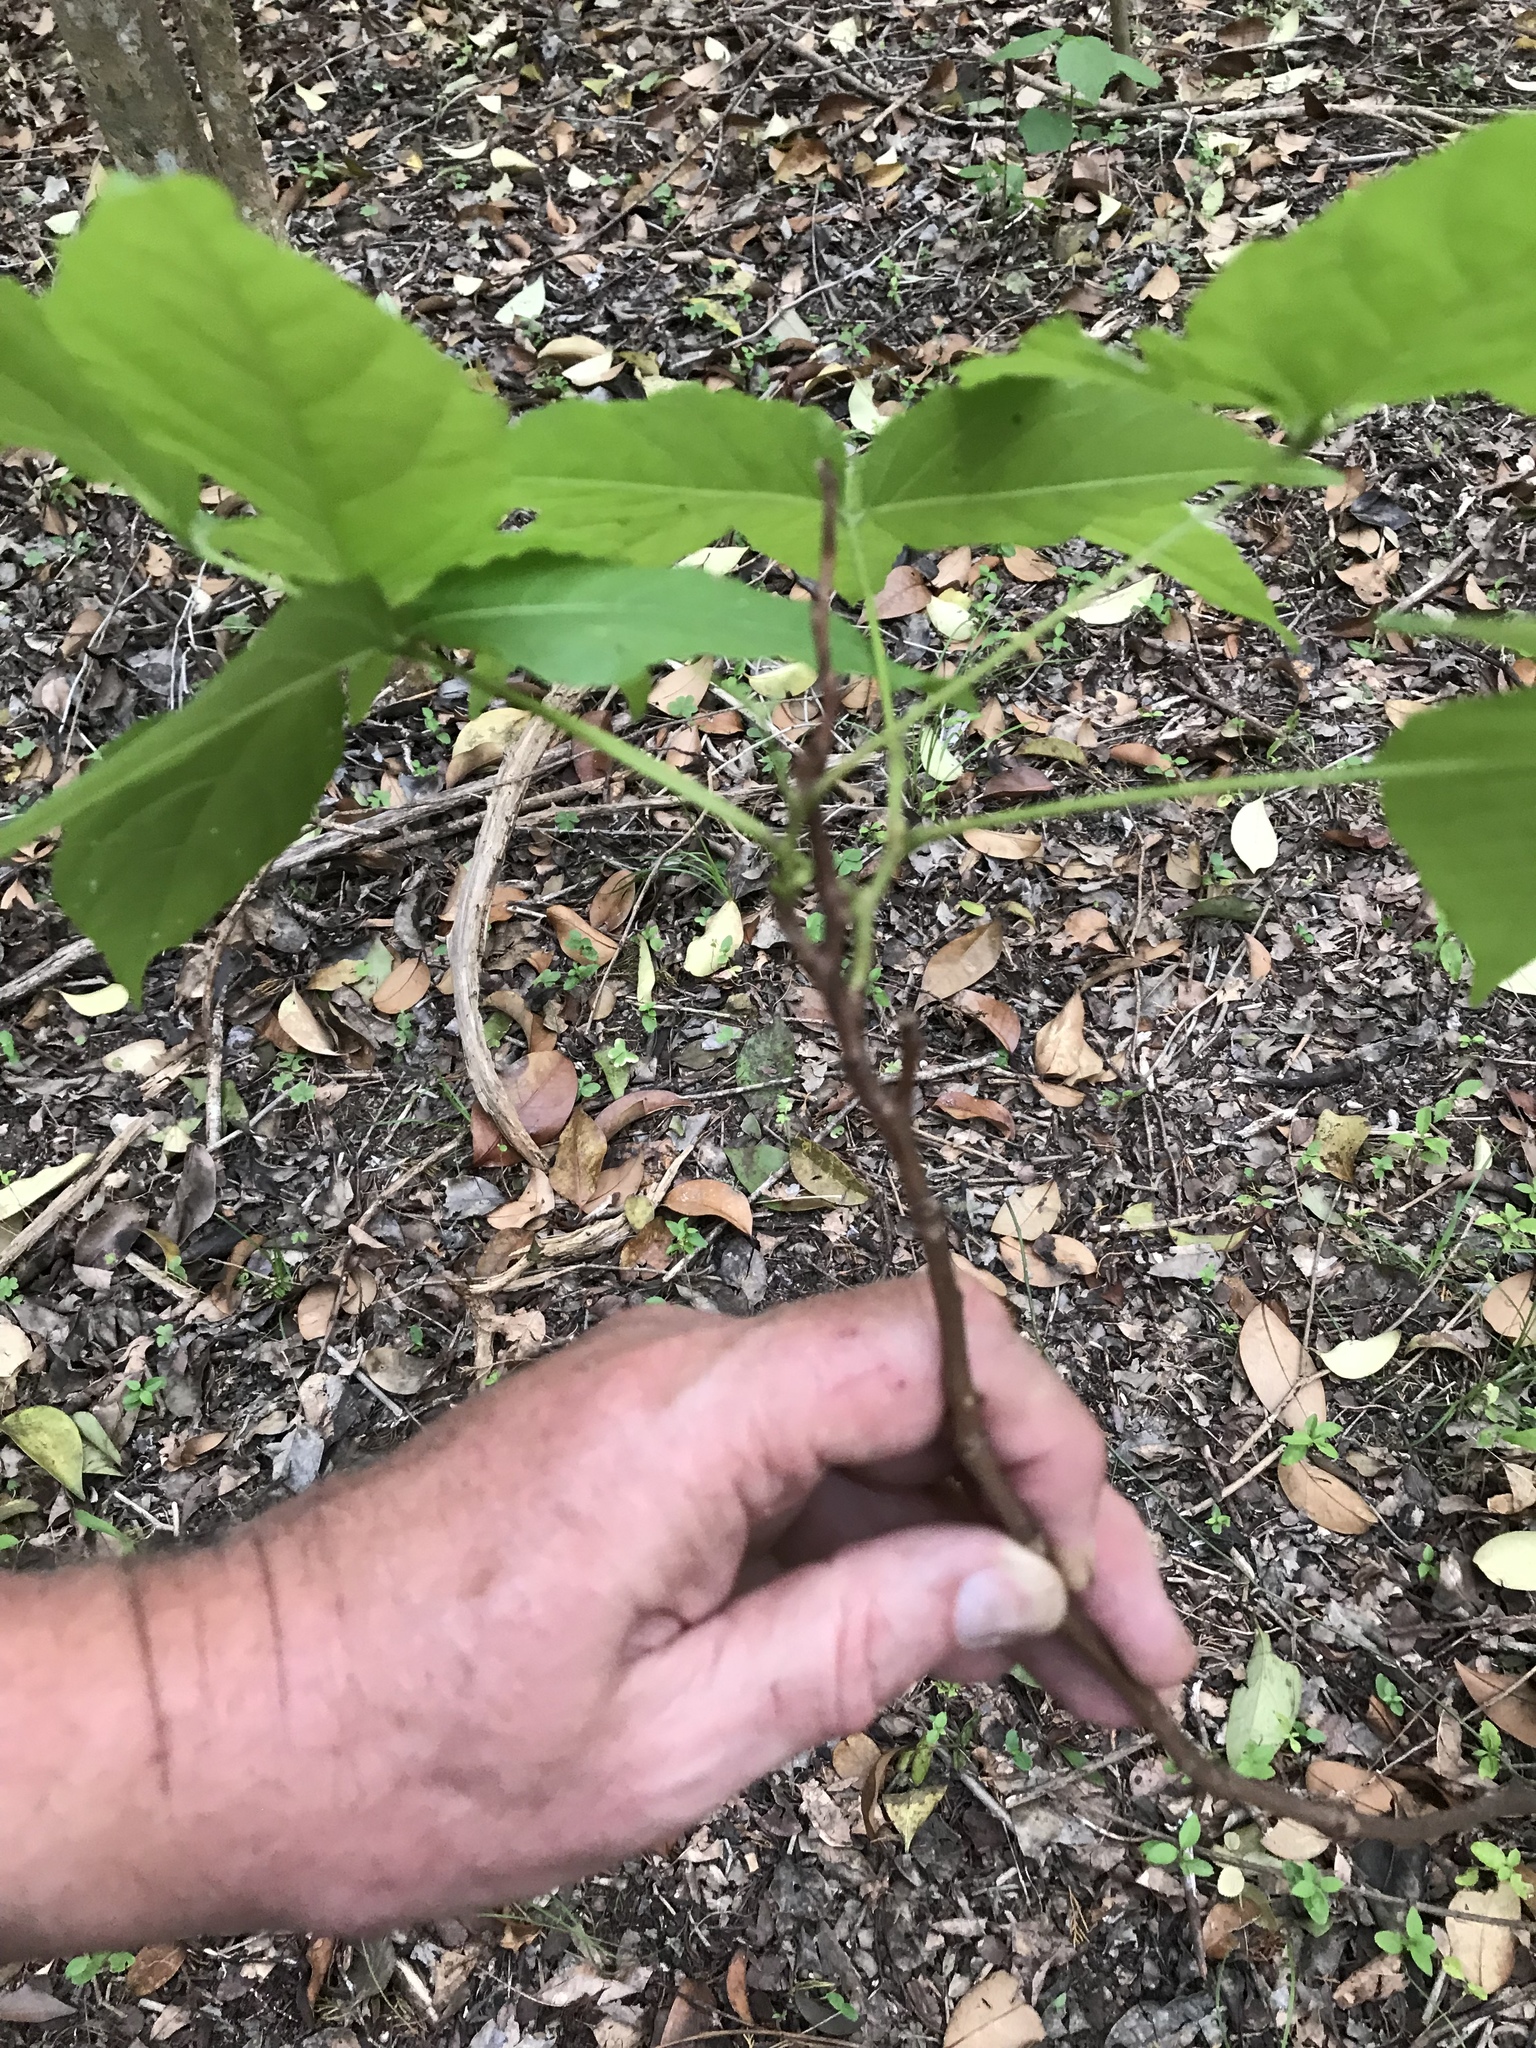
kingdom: Plantae
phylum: Tracheophyta
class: Magnoliopsida
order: Sapindales
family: Sapindaceae
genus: Ungnadia
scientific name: Ungnadia speciosa
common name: Texas-buckeye
